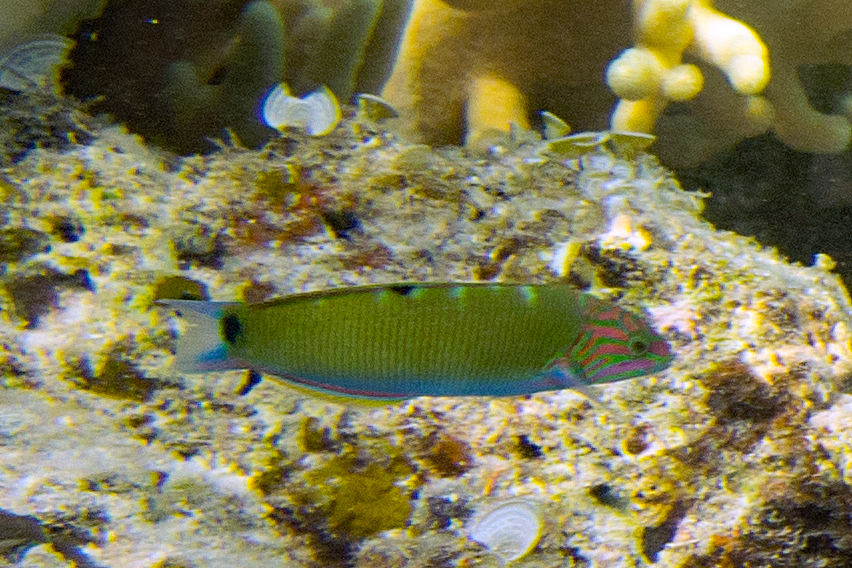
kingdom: Animalia
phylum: Chordata
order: Perciformes
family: Labridae
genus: Thalassoma
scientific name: Thalassoma lunare
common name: Blue wrasse
